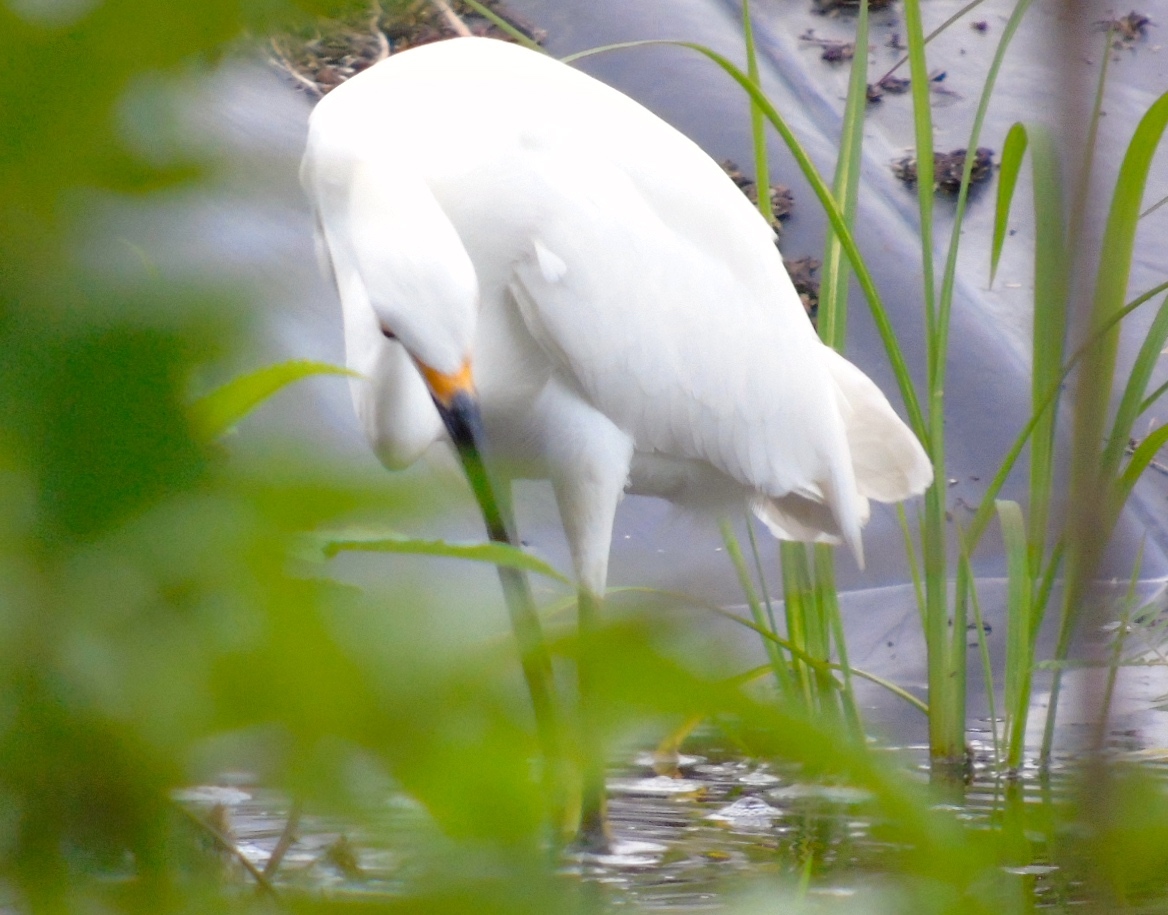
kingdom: Animalia
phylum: Chordata
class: Aves
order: Pelecaniformes
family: Ardeidae
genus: Egretta
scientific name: Egretta thula
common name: Snowy egret
